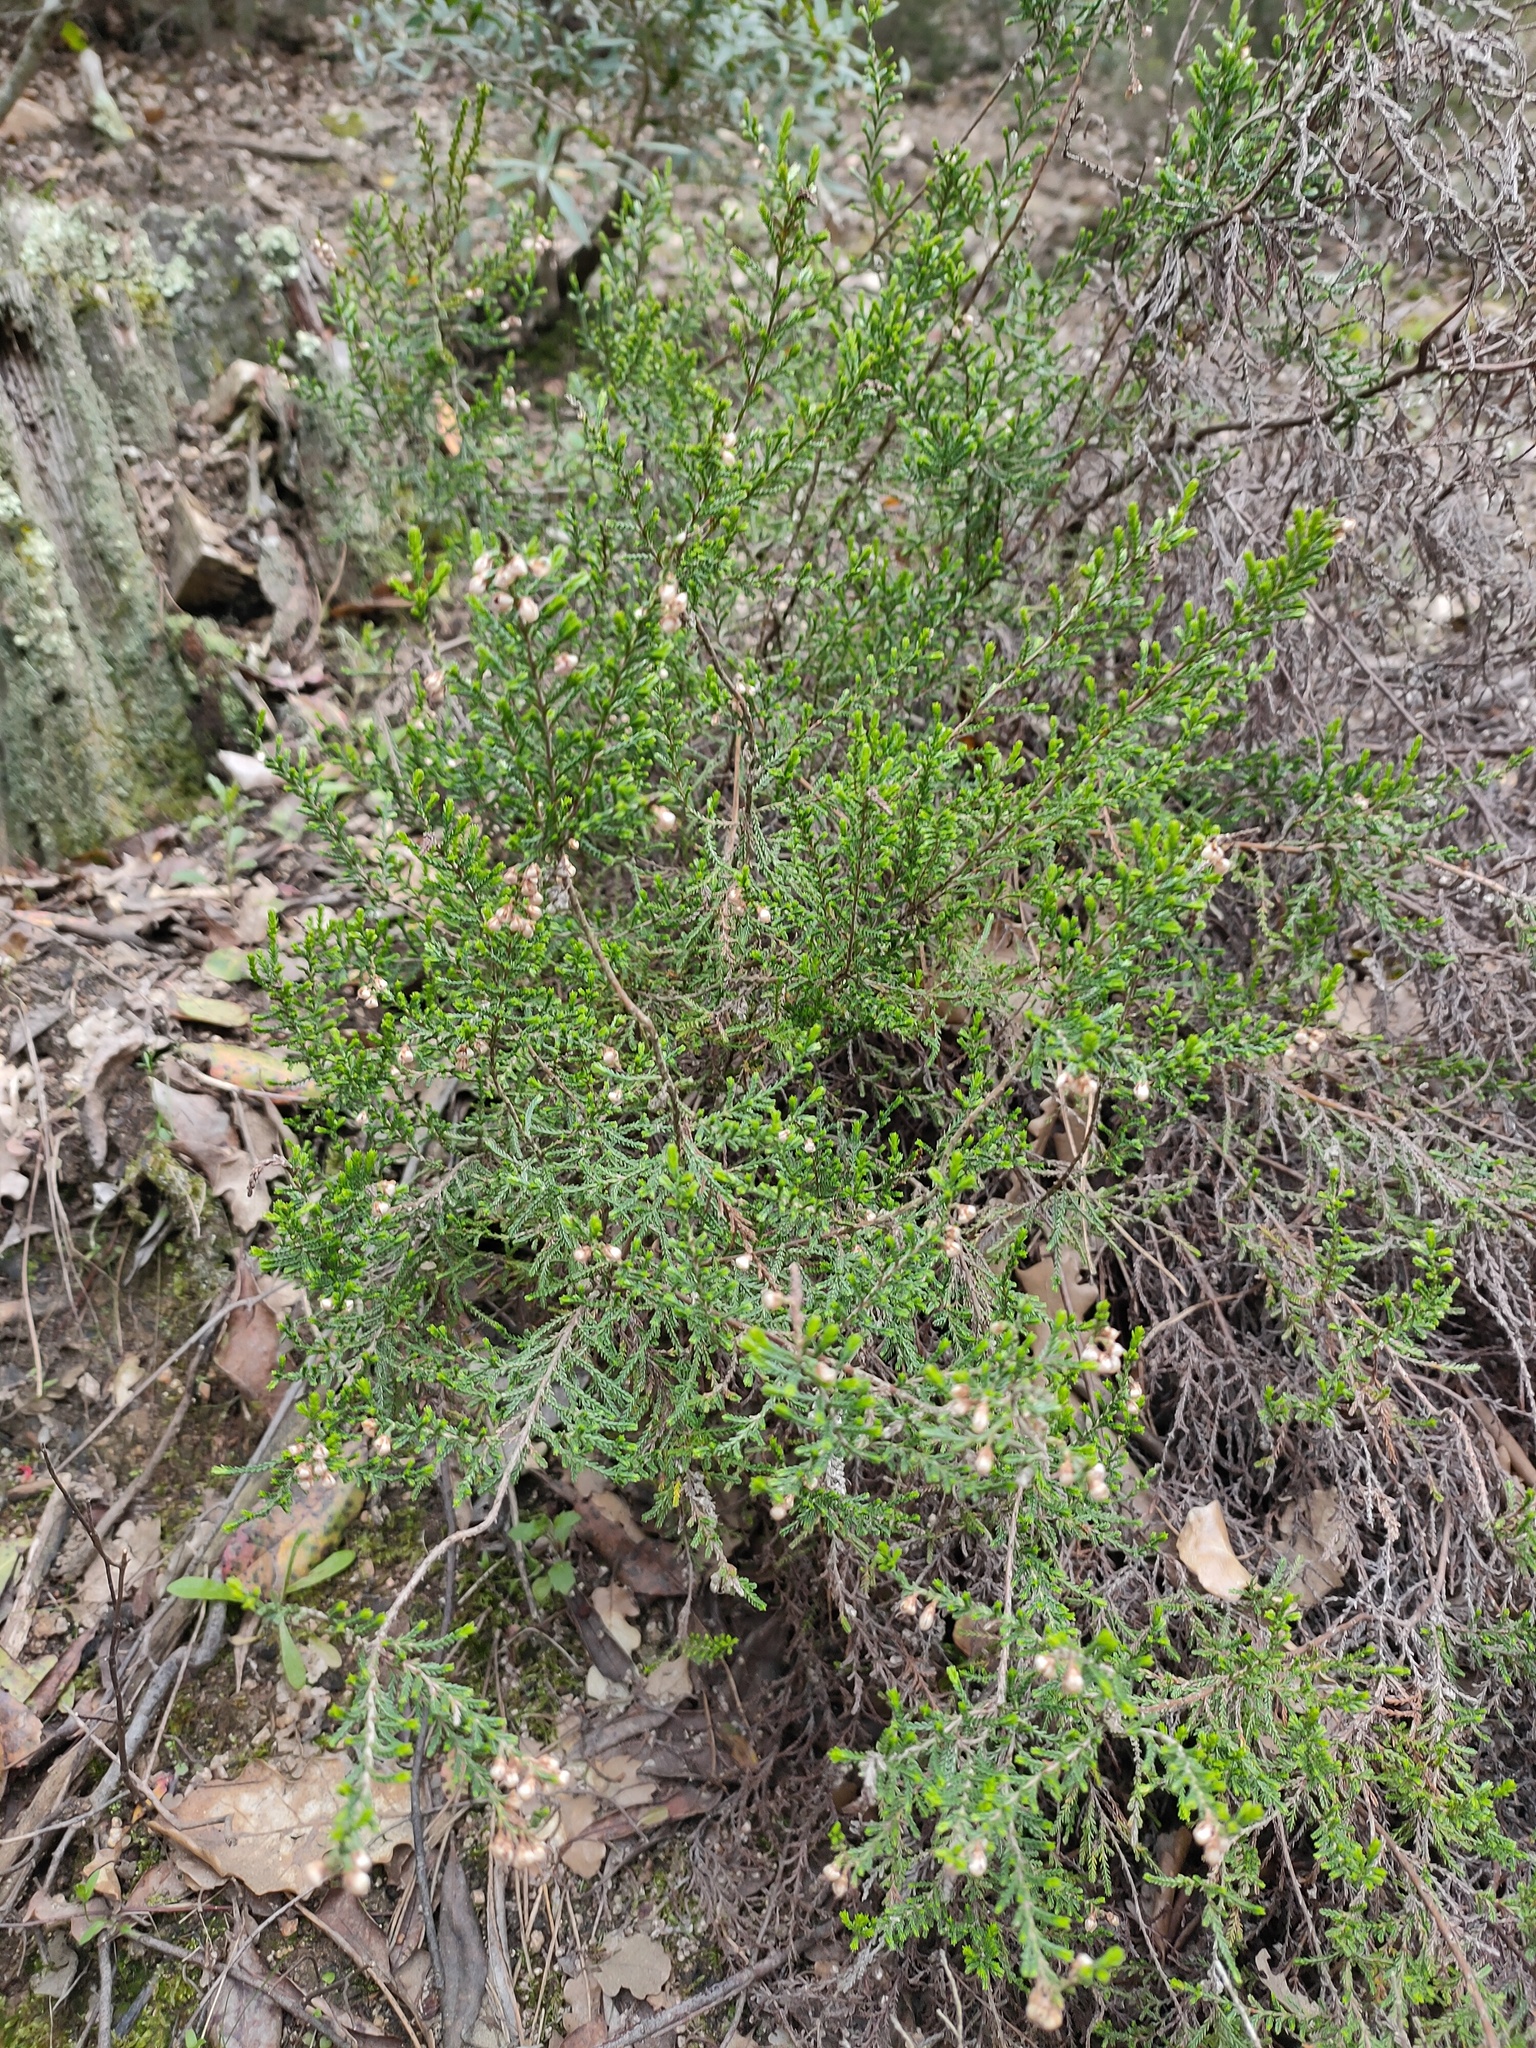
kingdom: Plantae
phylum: Tracheophyta
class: Magnoliopsida
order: Ericales
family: Ericaceae
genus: Calluna
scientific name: Calluna vulgaris
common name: Heather
